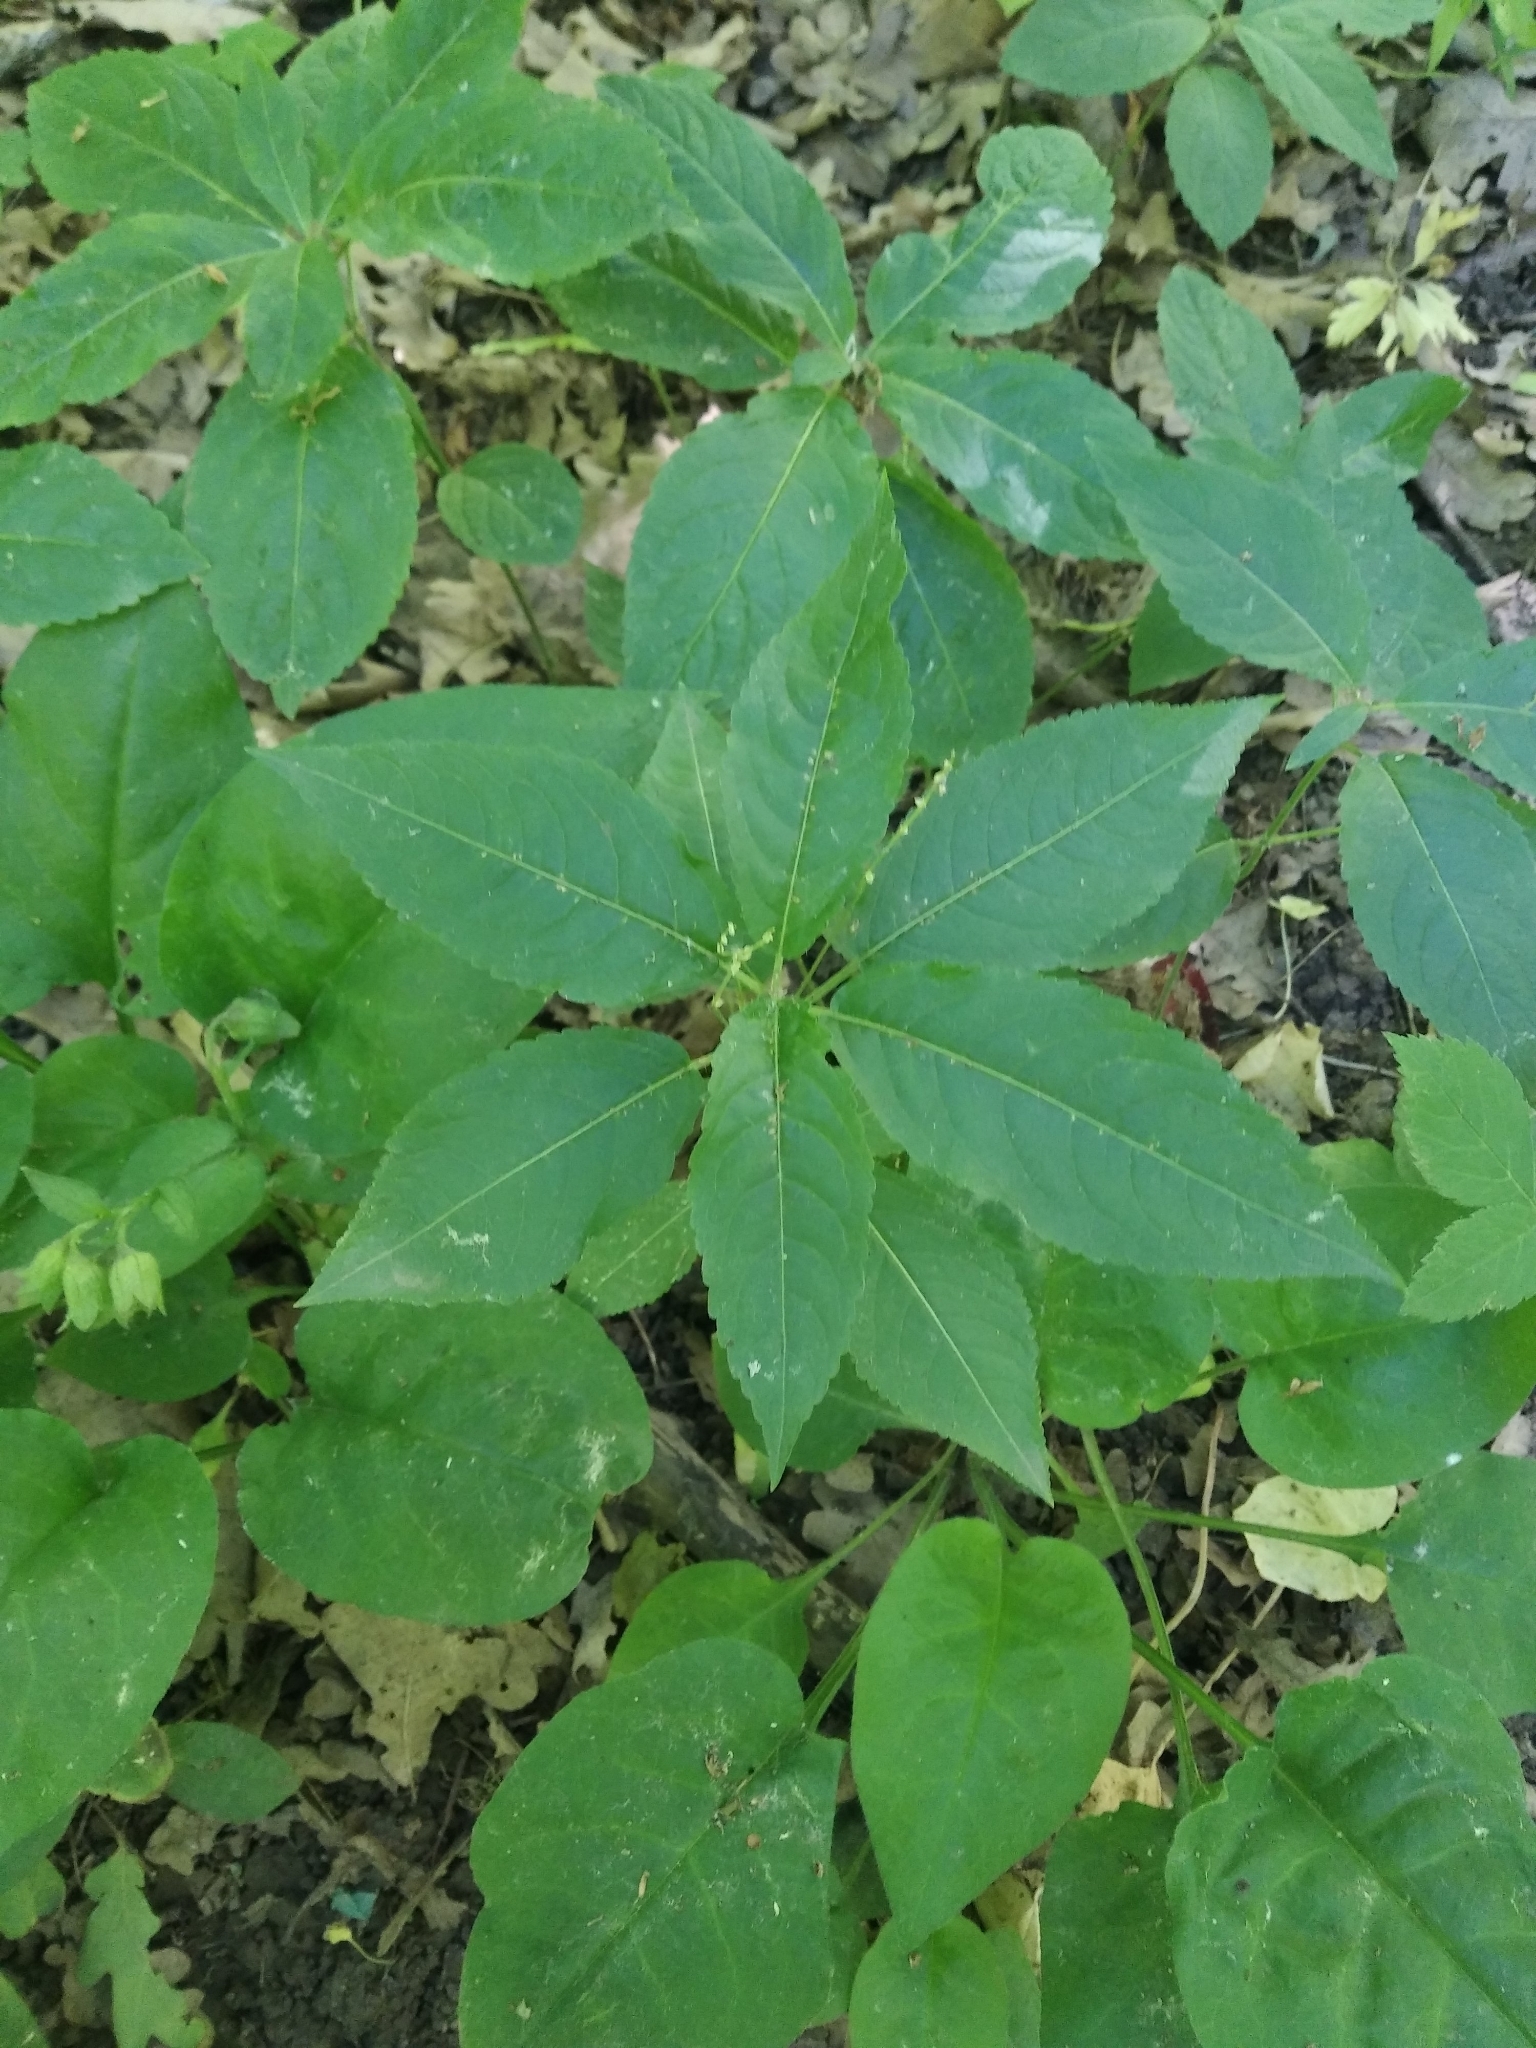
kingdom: Plantae
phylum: Tracheophyta
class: Magnoliopsida
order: Malpighiales
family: Euphorbiaceae
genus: Mercurialis
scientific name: Mercurialis perennis
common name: Dog mercury
